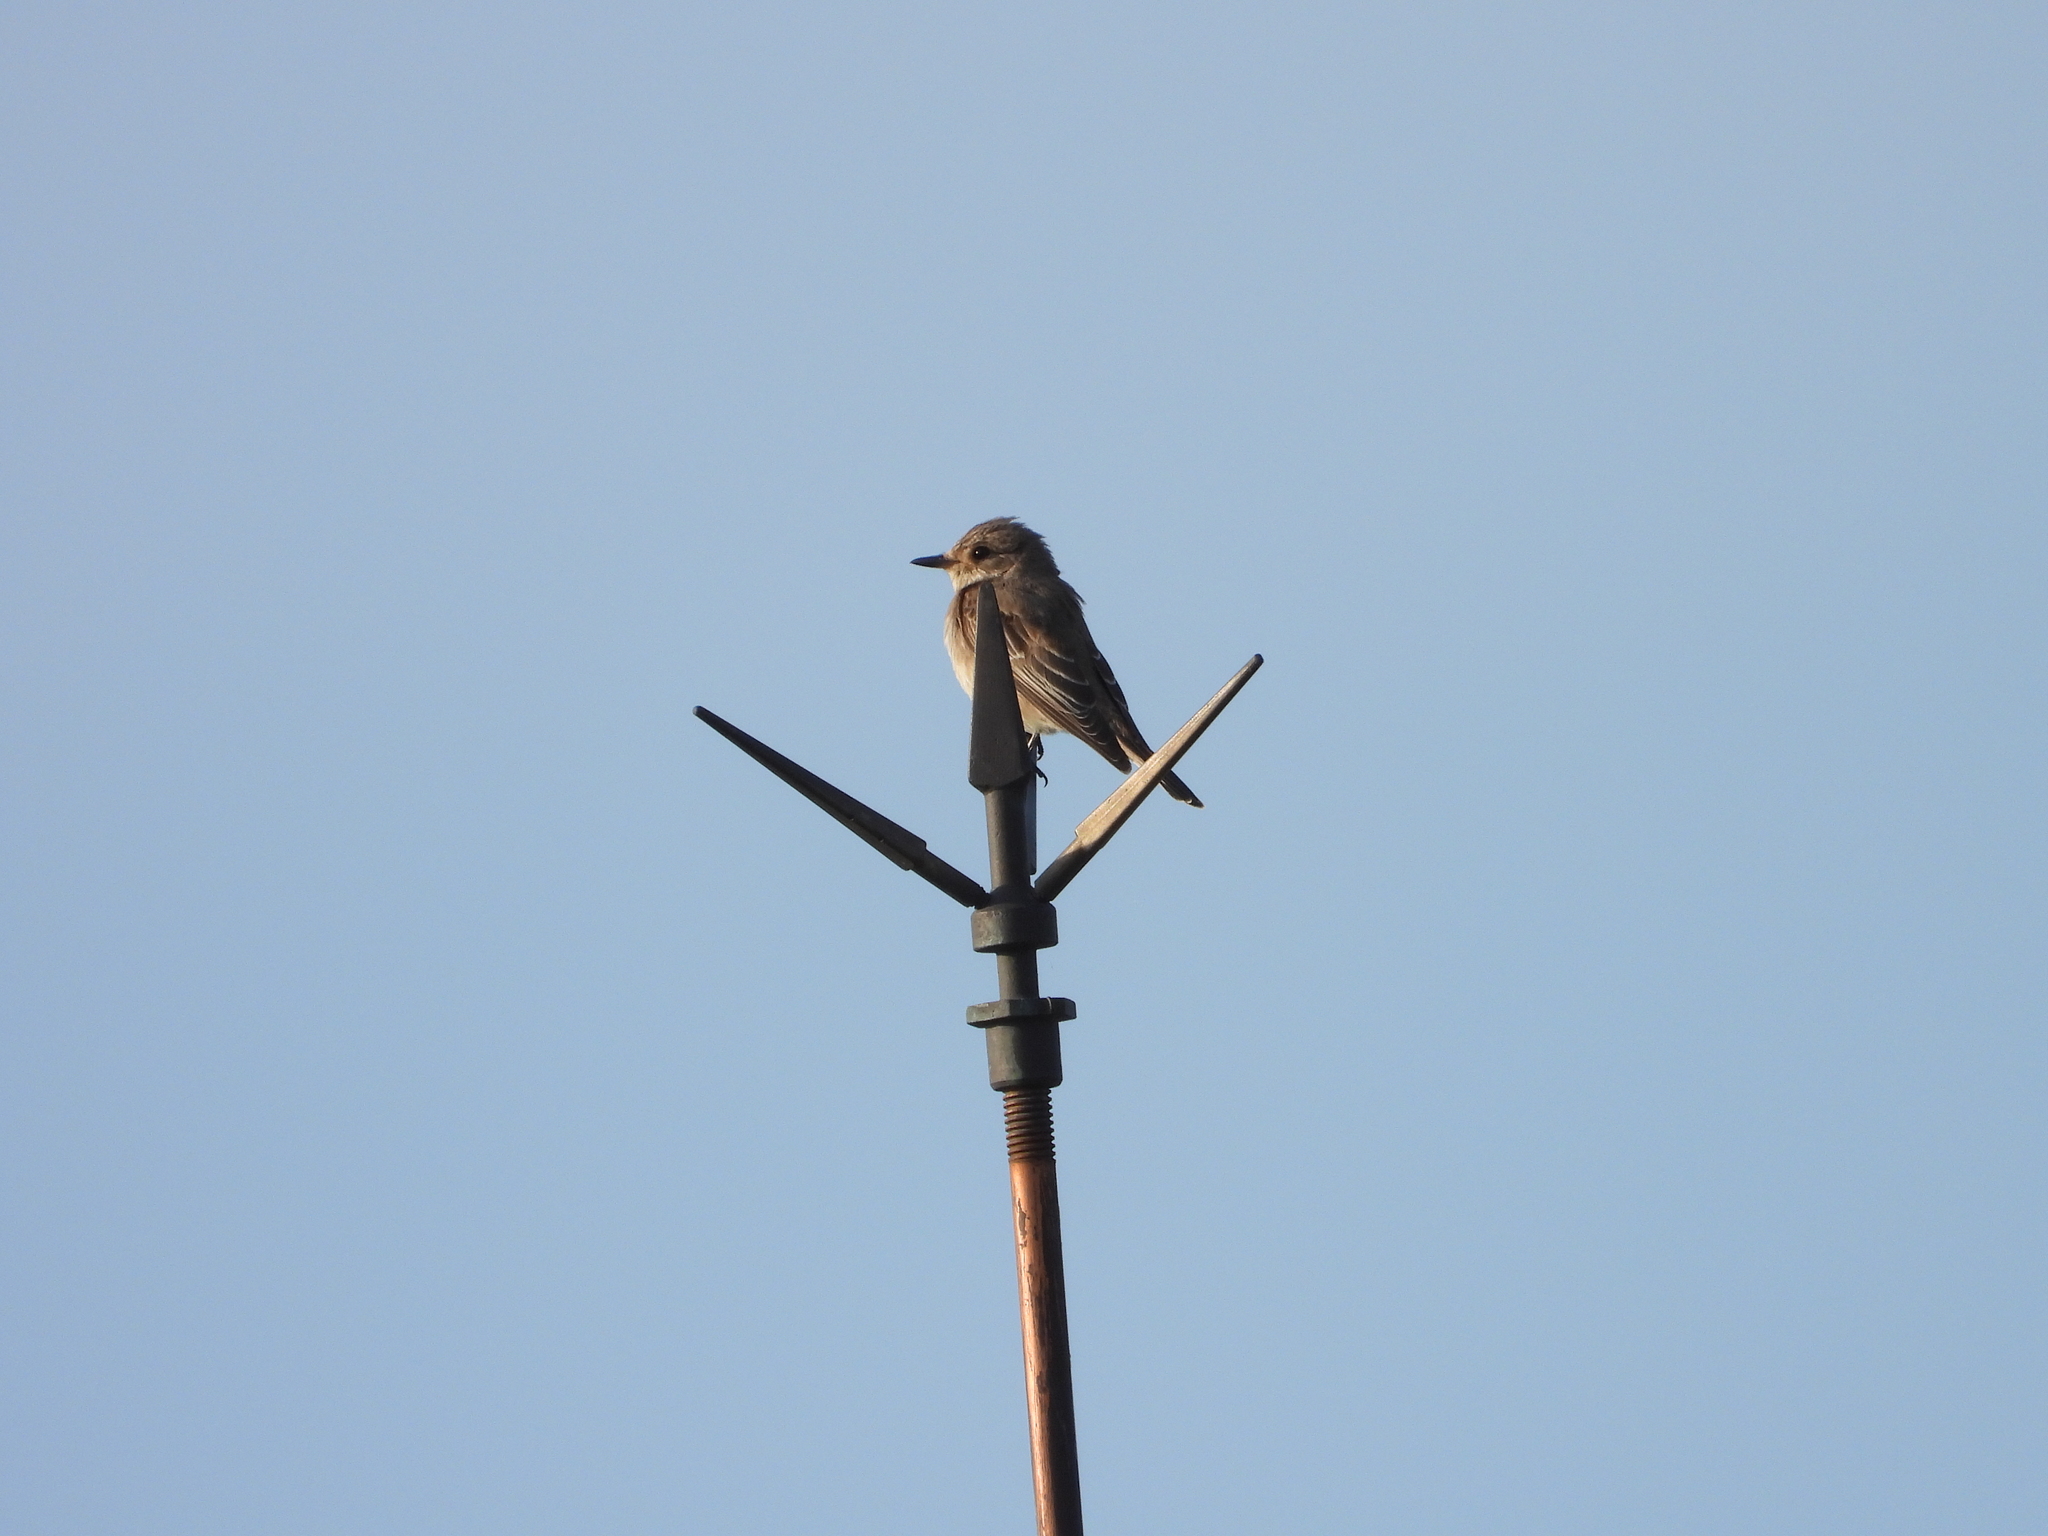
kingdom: Animalia
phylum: Chordata
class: Aves
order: Passeriformes
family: Muscicapidae
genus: Muscicapa
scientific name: Muscicapa striata
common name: Spotted flycatcher
